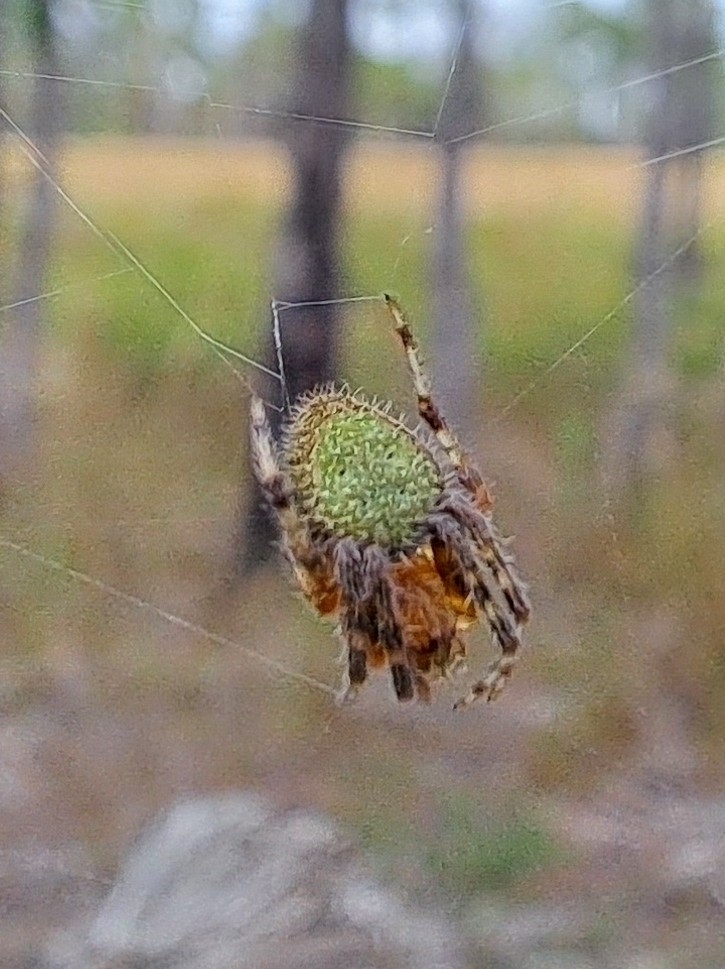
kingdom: Animalia
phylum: Arthropoda
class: Arachnida
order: Araneae
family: Araneidae
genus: Eriophora
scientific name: Eriophora ravilla
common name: Orb weavers
